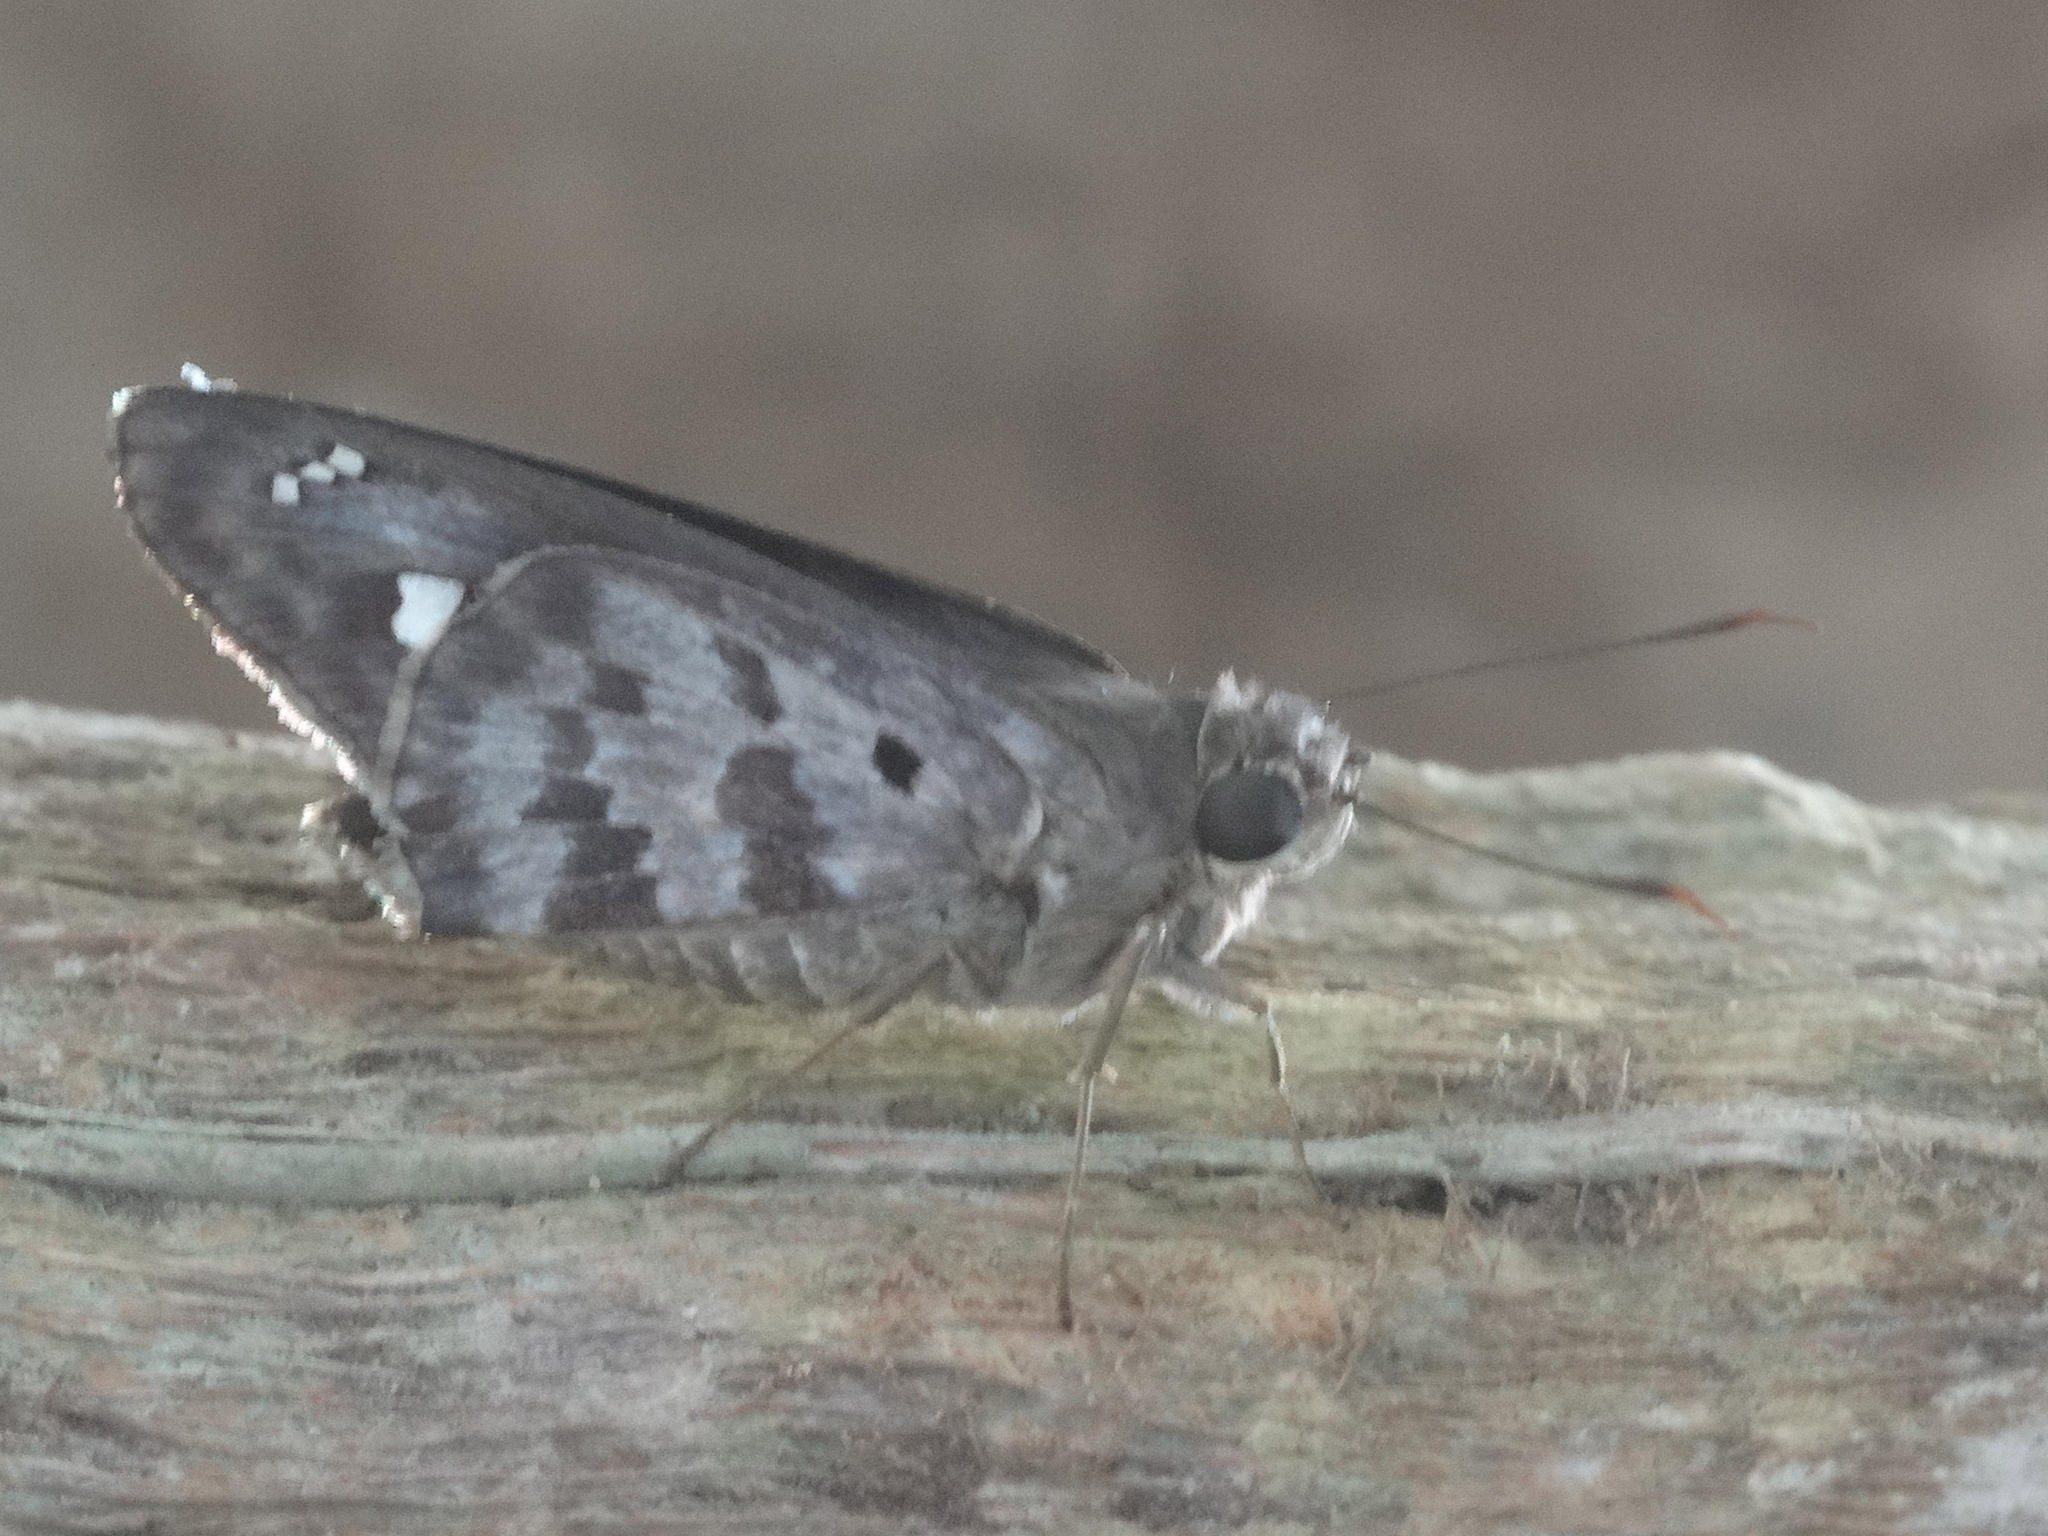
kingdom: Animalia
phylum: Arthropoda
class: Insecta
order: Lepidoptera
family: Hesperiidae
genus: Polygonus
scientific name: Polygonus
